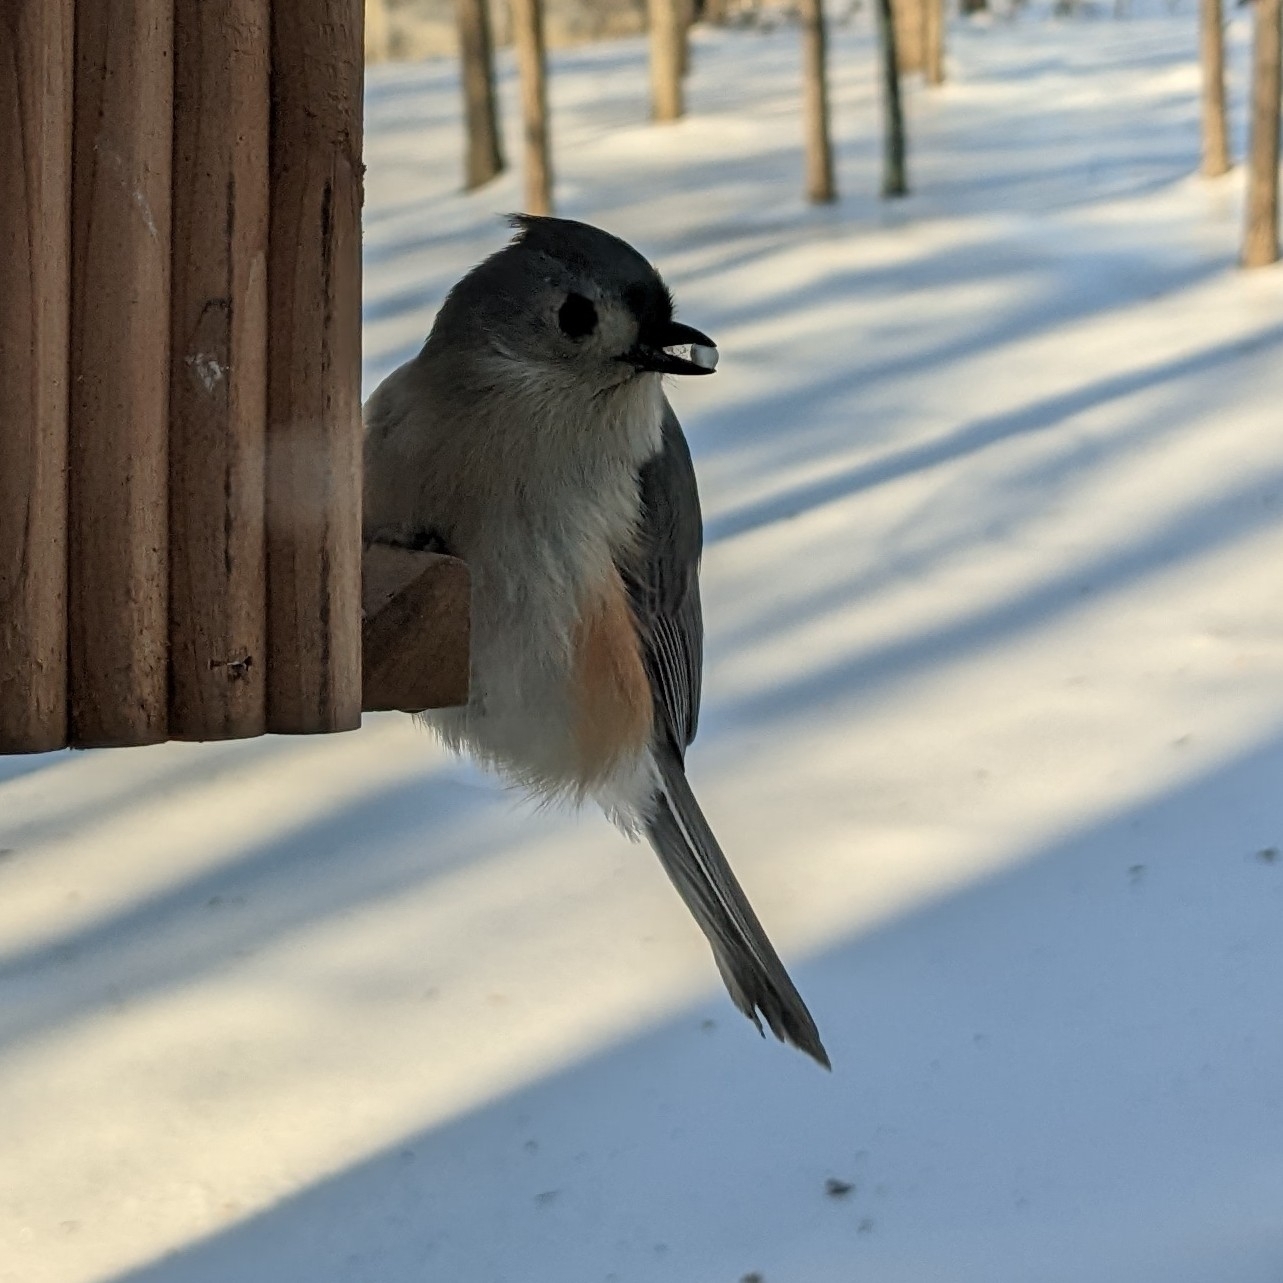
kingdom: Animalia
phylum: Chordata
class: Aves
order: Passeriformes
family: Paridae
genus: Baeolophus
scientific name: Baeolophus bicolor
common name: Tufted titmouse
